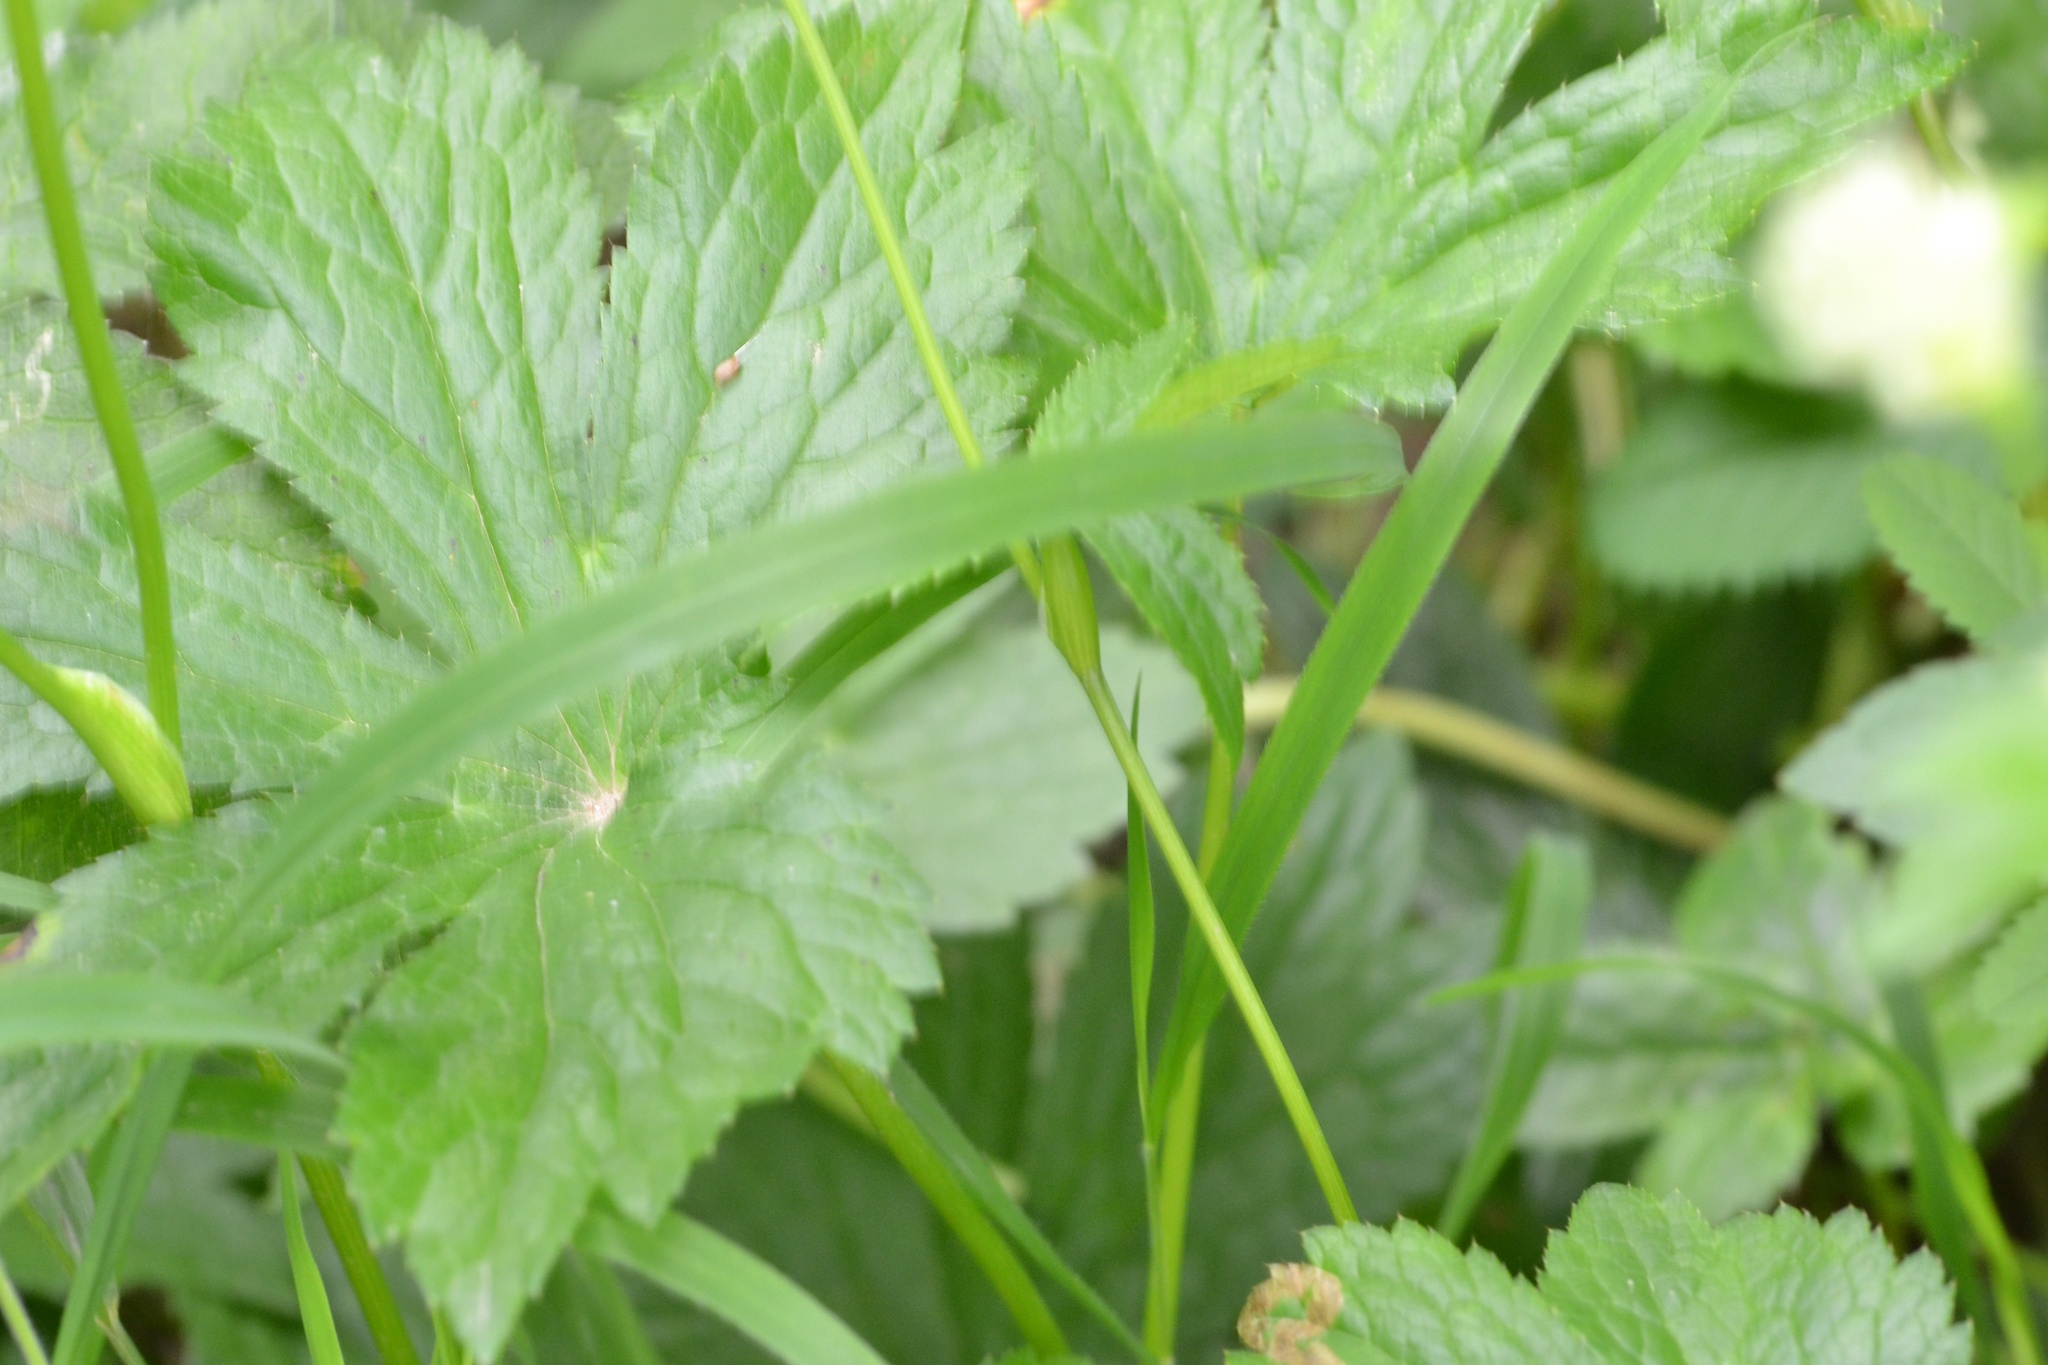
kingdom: Plantae
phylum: Tracheophyta
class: Magnoliopsida
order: Apiales
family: Apiaceae
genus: Astrantia
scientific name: Astrantia major
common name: Greater masterwort
